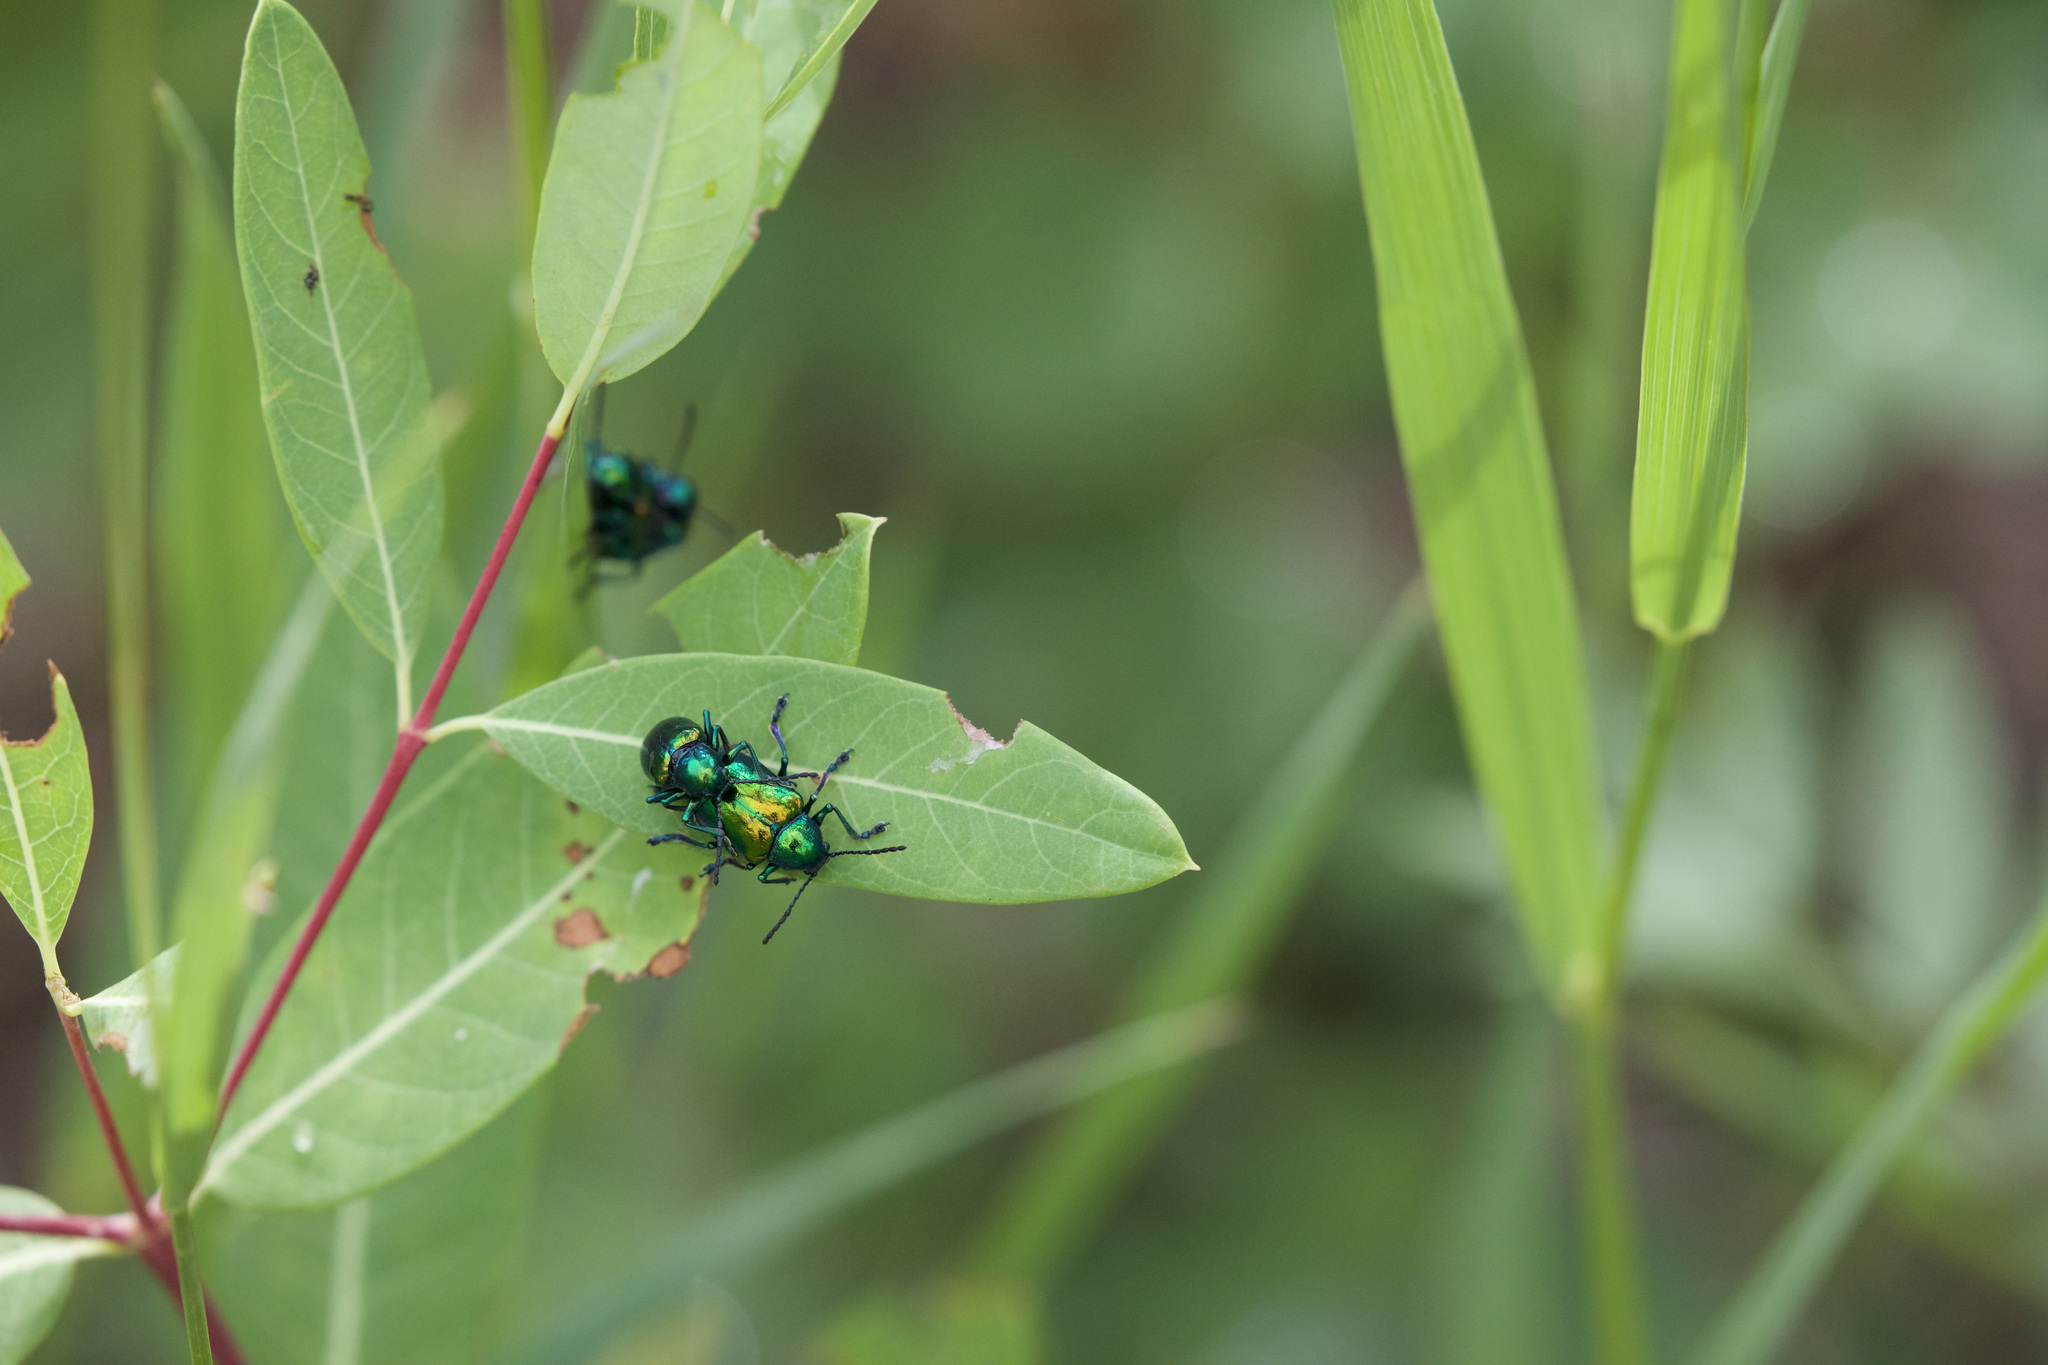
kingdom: Animalia
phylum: Arthropoda
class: Insecta
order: Coleoptera
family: Chrysomelidae
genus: Chrysochus
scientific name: Chrysochus auratus
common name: Dogbane leaf beetle
